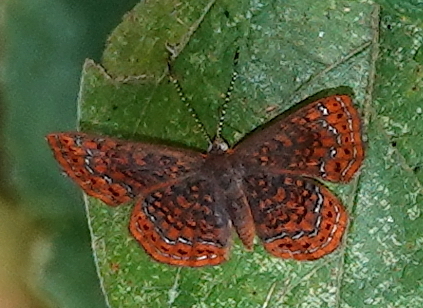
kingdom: Animalia
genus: Calephelis
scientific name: Calephelis laverna
